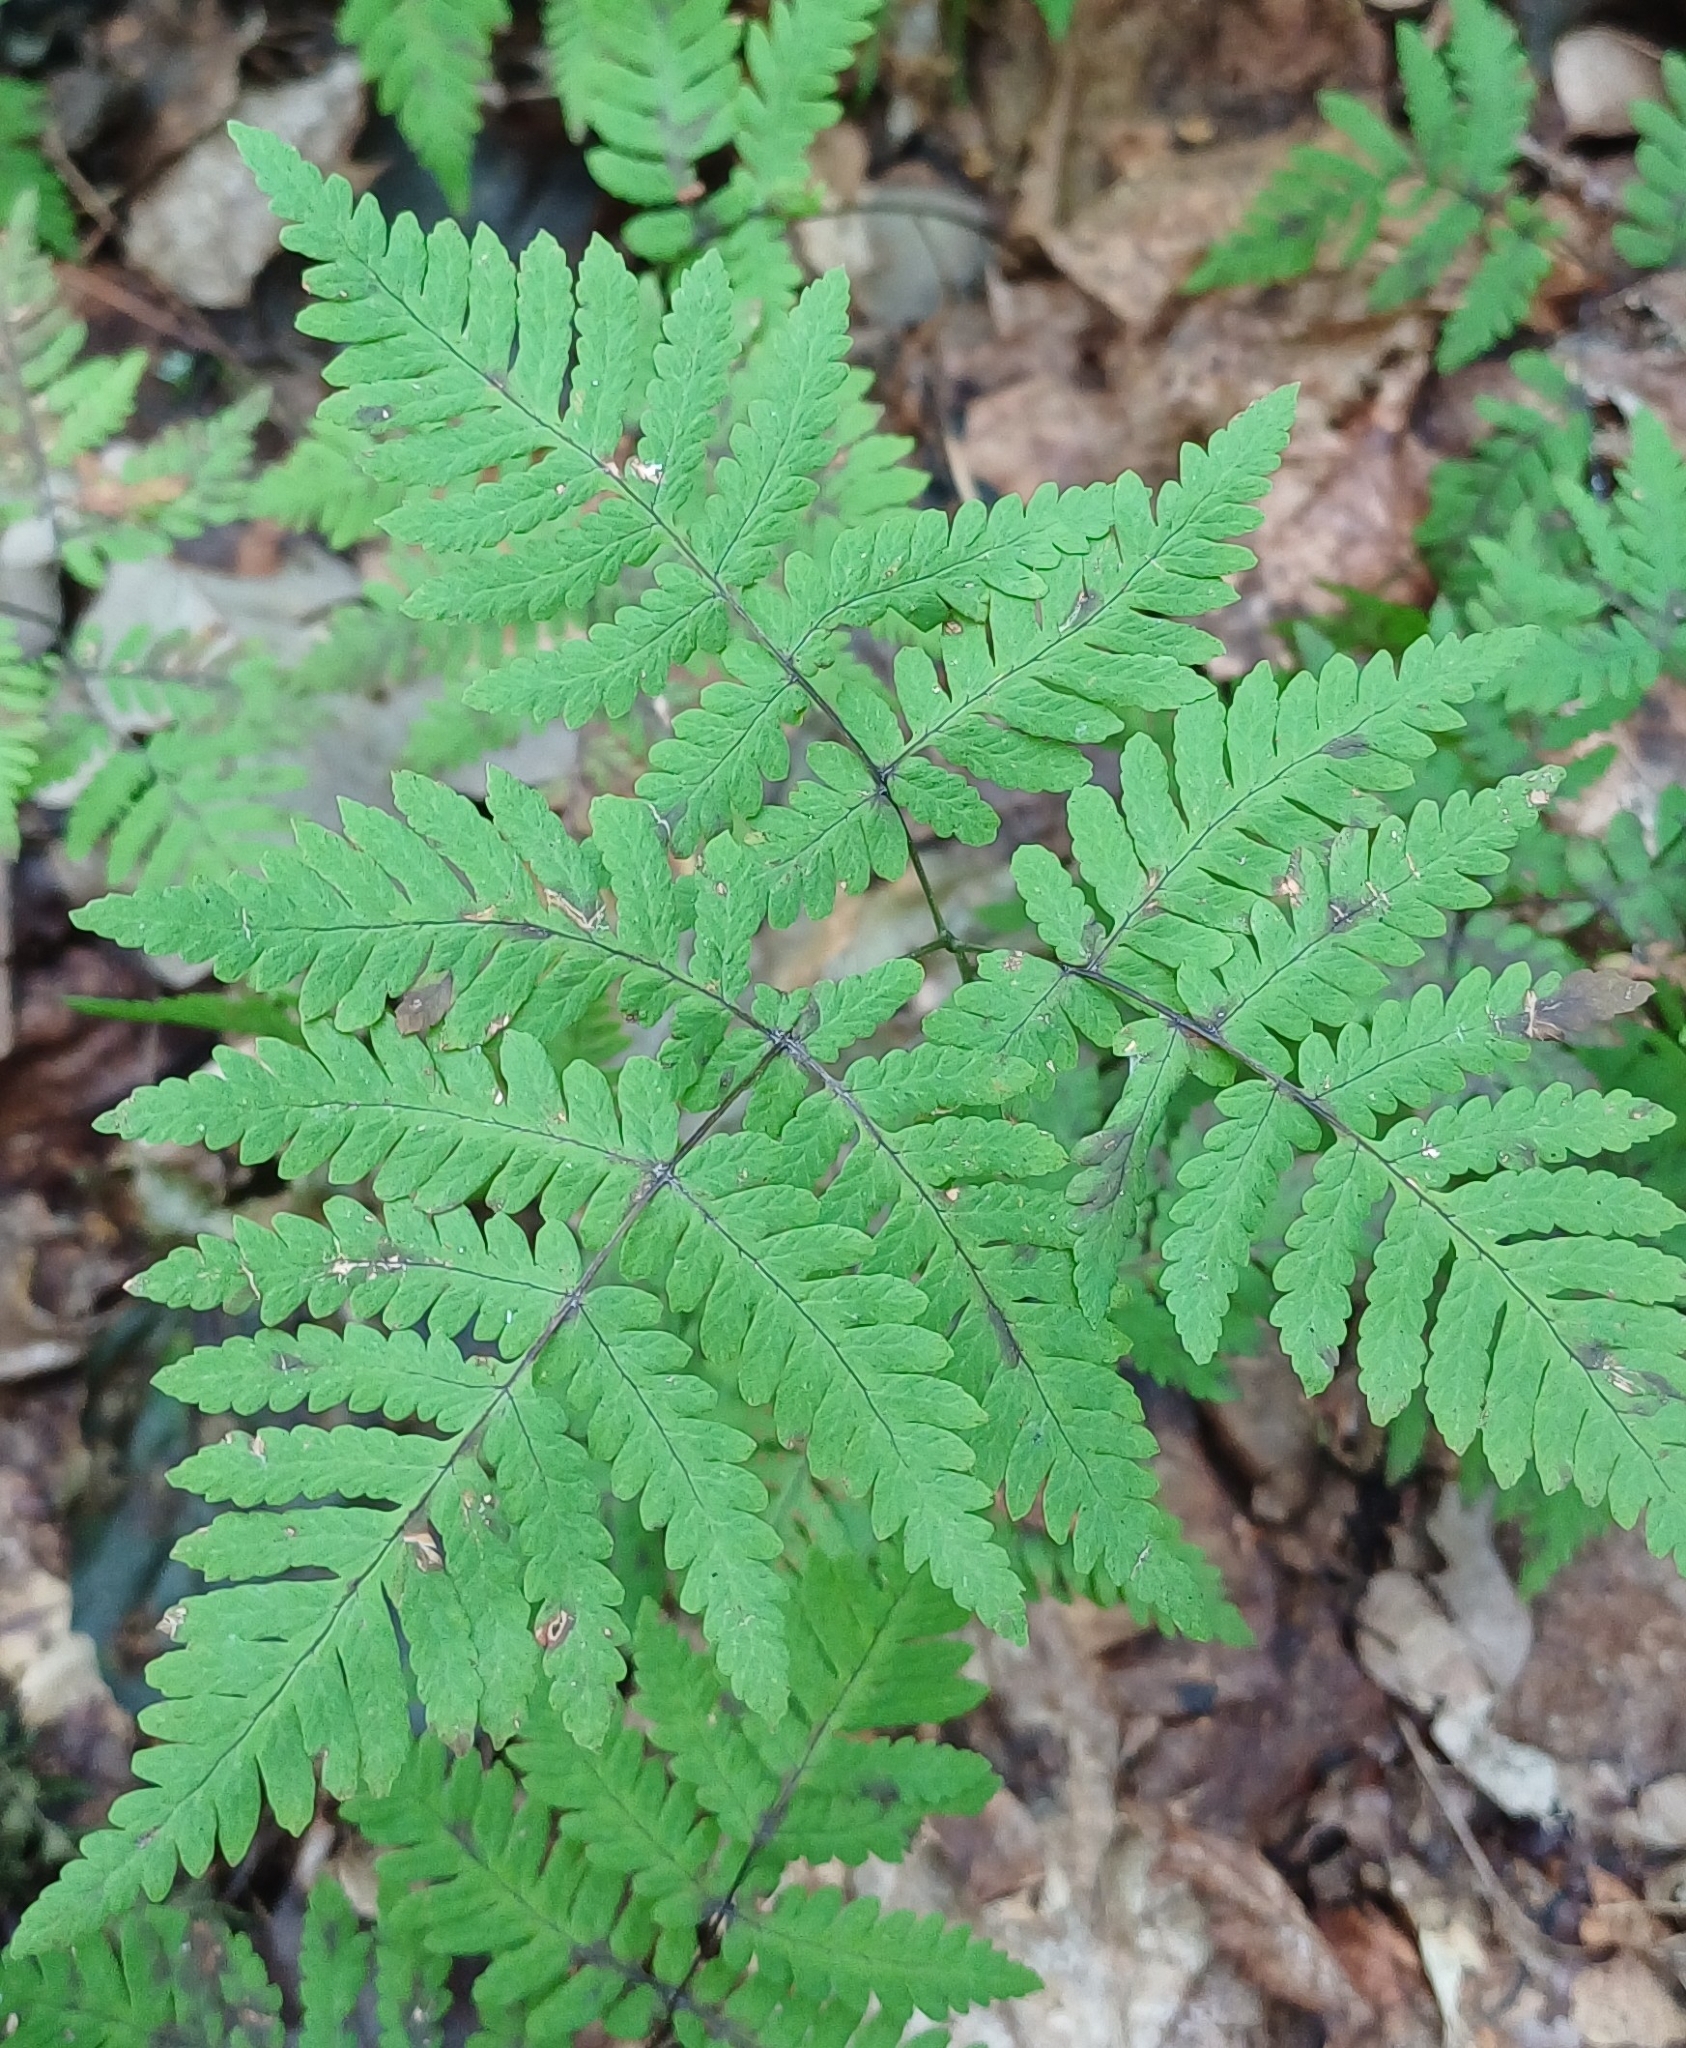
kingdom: Plantae
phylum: Tracheophyta
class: Polypodiopsida
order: Polypodiales
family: Cystopteridaceae
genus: Gymnocarpium
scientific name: Gymnocarpium dryopteris
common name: Oak fern
